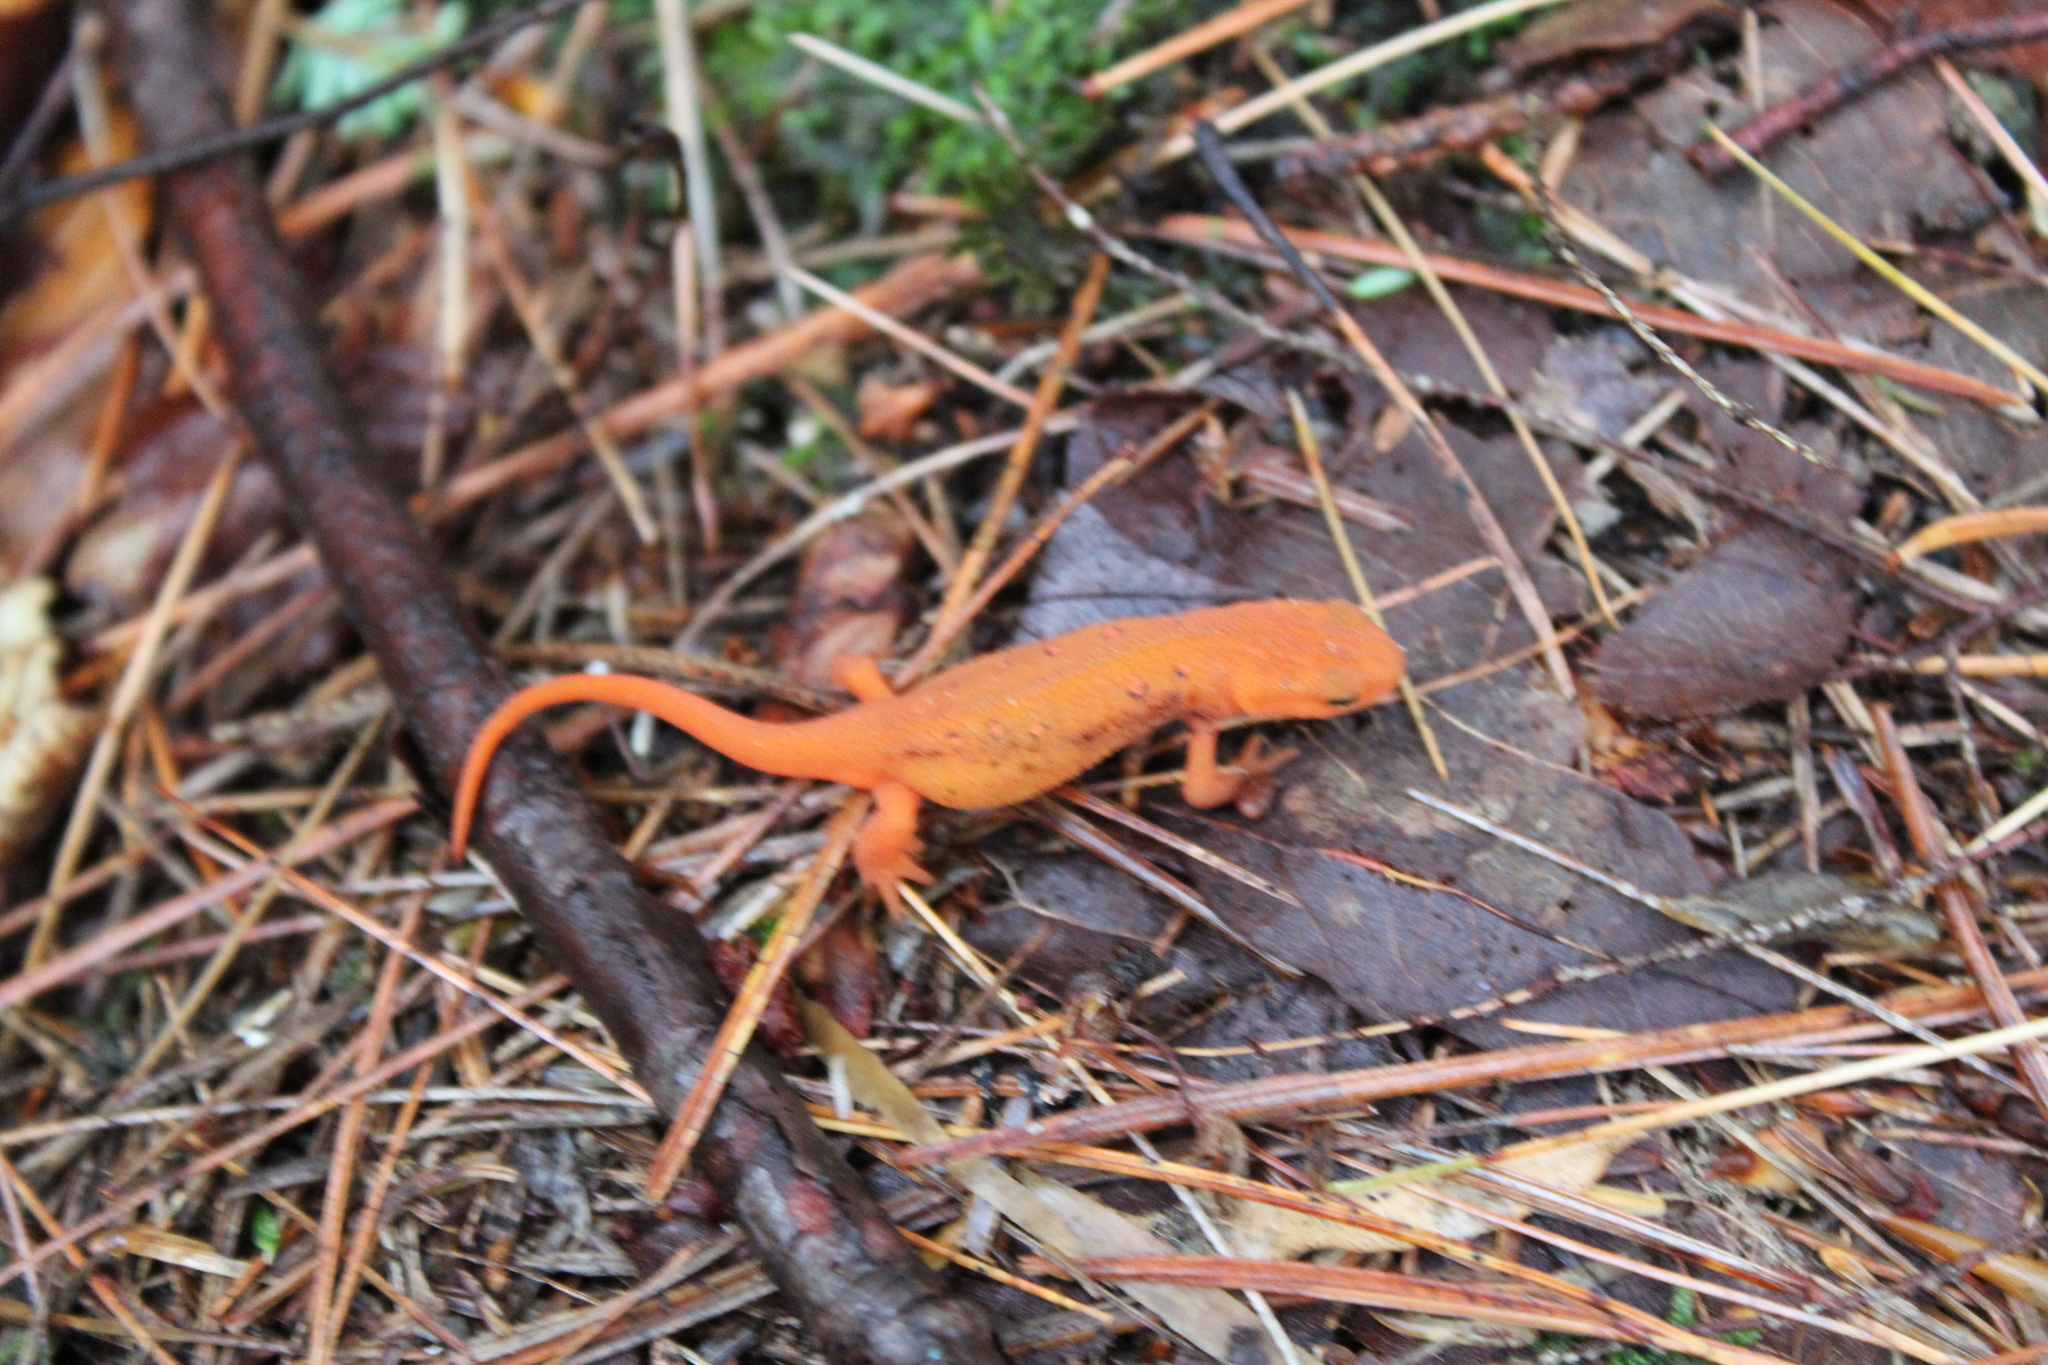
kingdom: Animalia
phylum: Chordata
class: Amphibia
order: Caudata
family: Salamandridae
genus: Notophthalmus
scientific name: Notophthalmus viridescens
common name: Eastern newt
